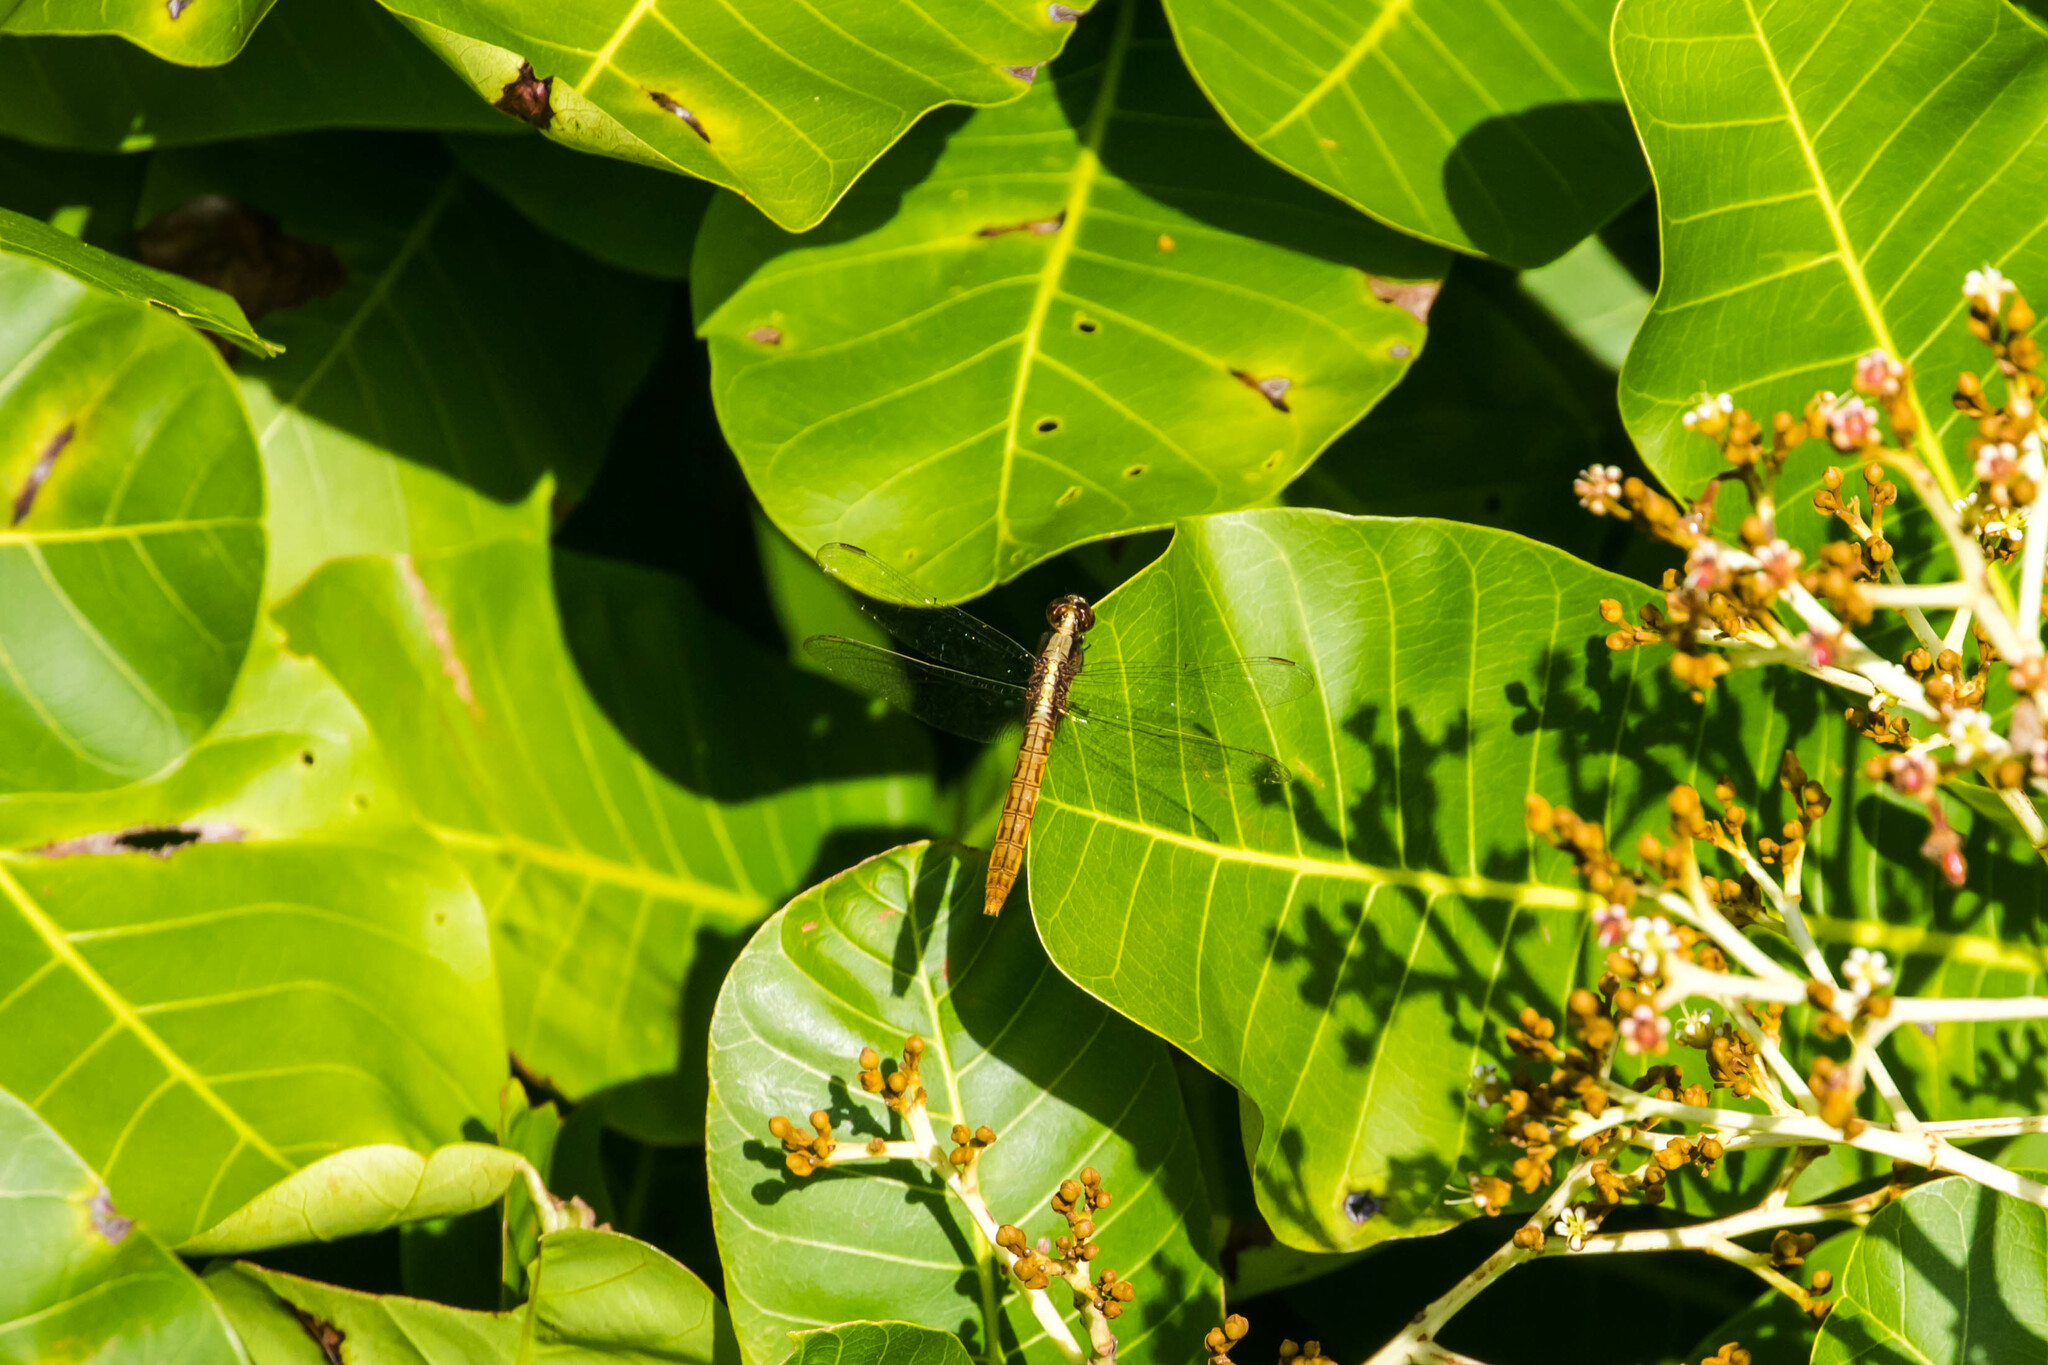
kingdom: Animalia
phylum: Arthropoda
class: Insecta
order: Odonata
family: Libellulidae
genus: Erythemis
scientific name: Erythemis peruviana
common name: Flame-tailed pondhawk
